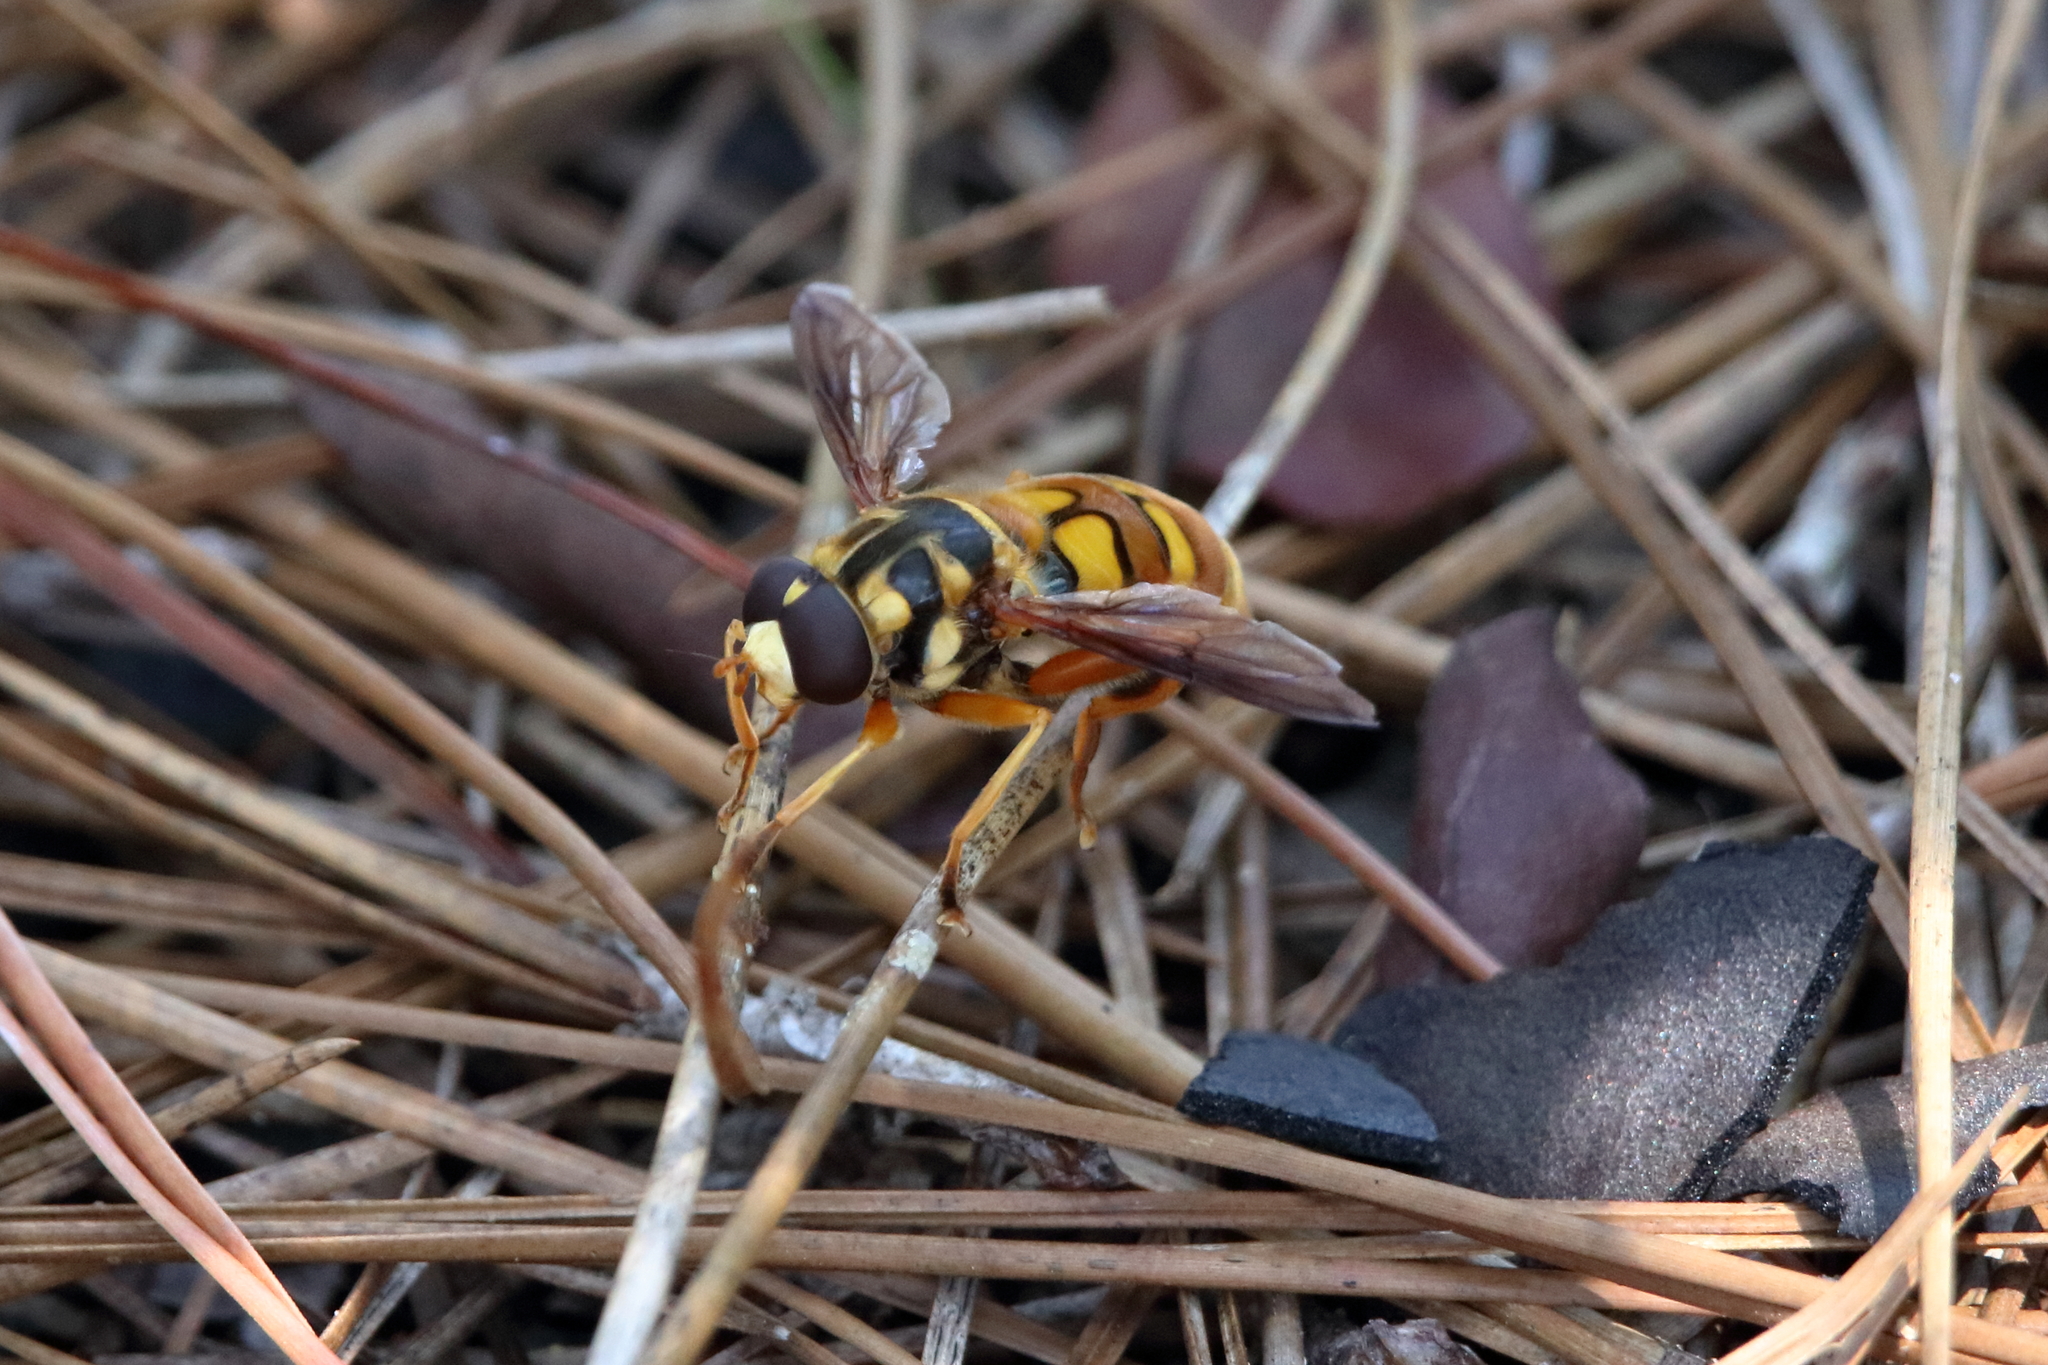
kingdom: Animalia
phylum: Arthropoda
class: Insecta
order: Diptera
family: Syrphidae
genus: Milesia
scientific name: Milesia scutellata
